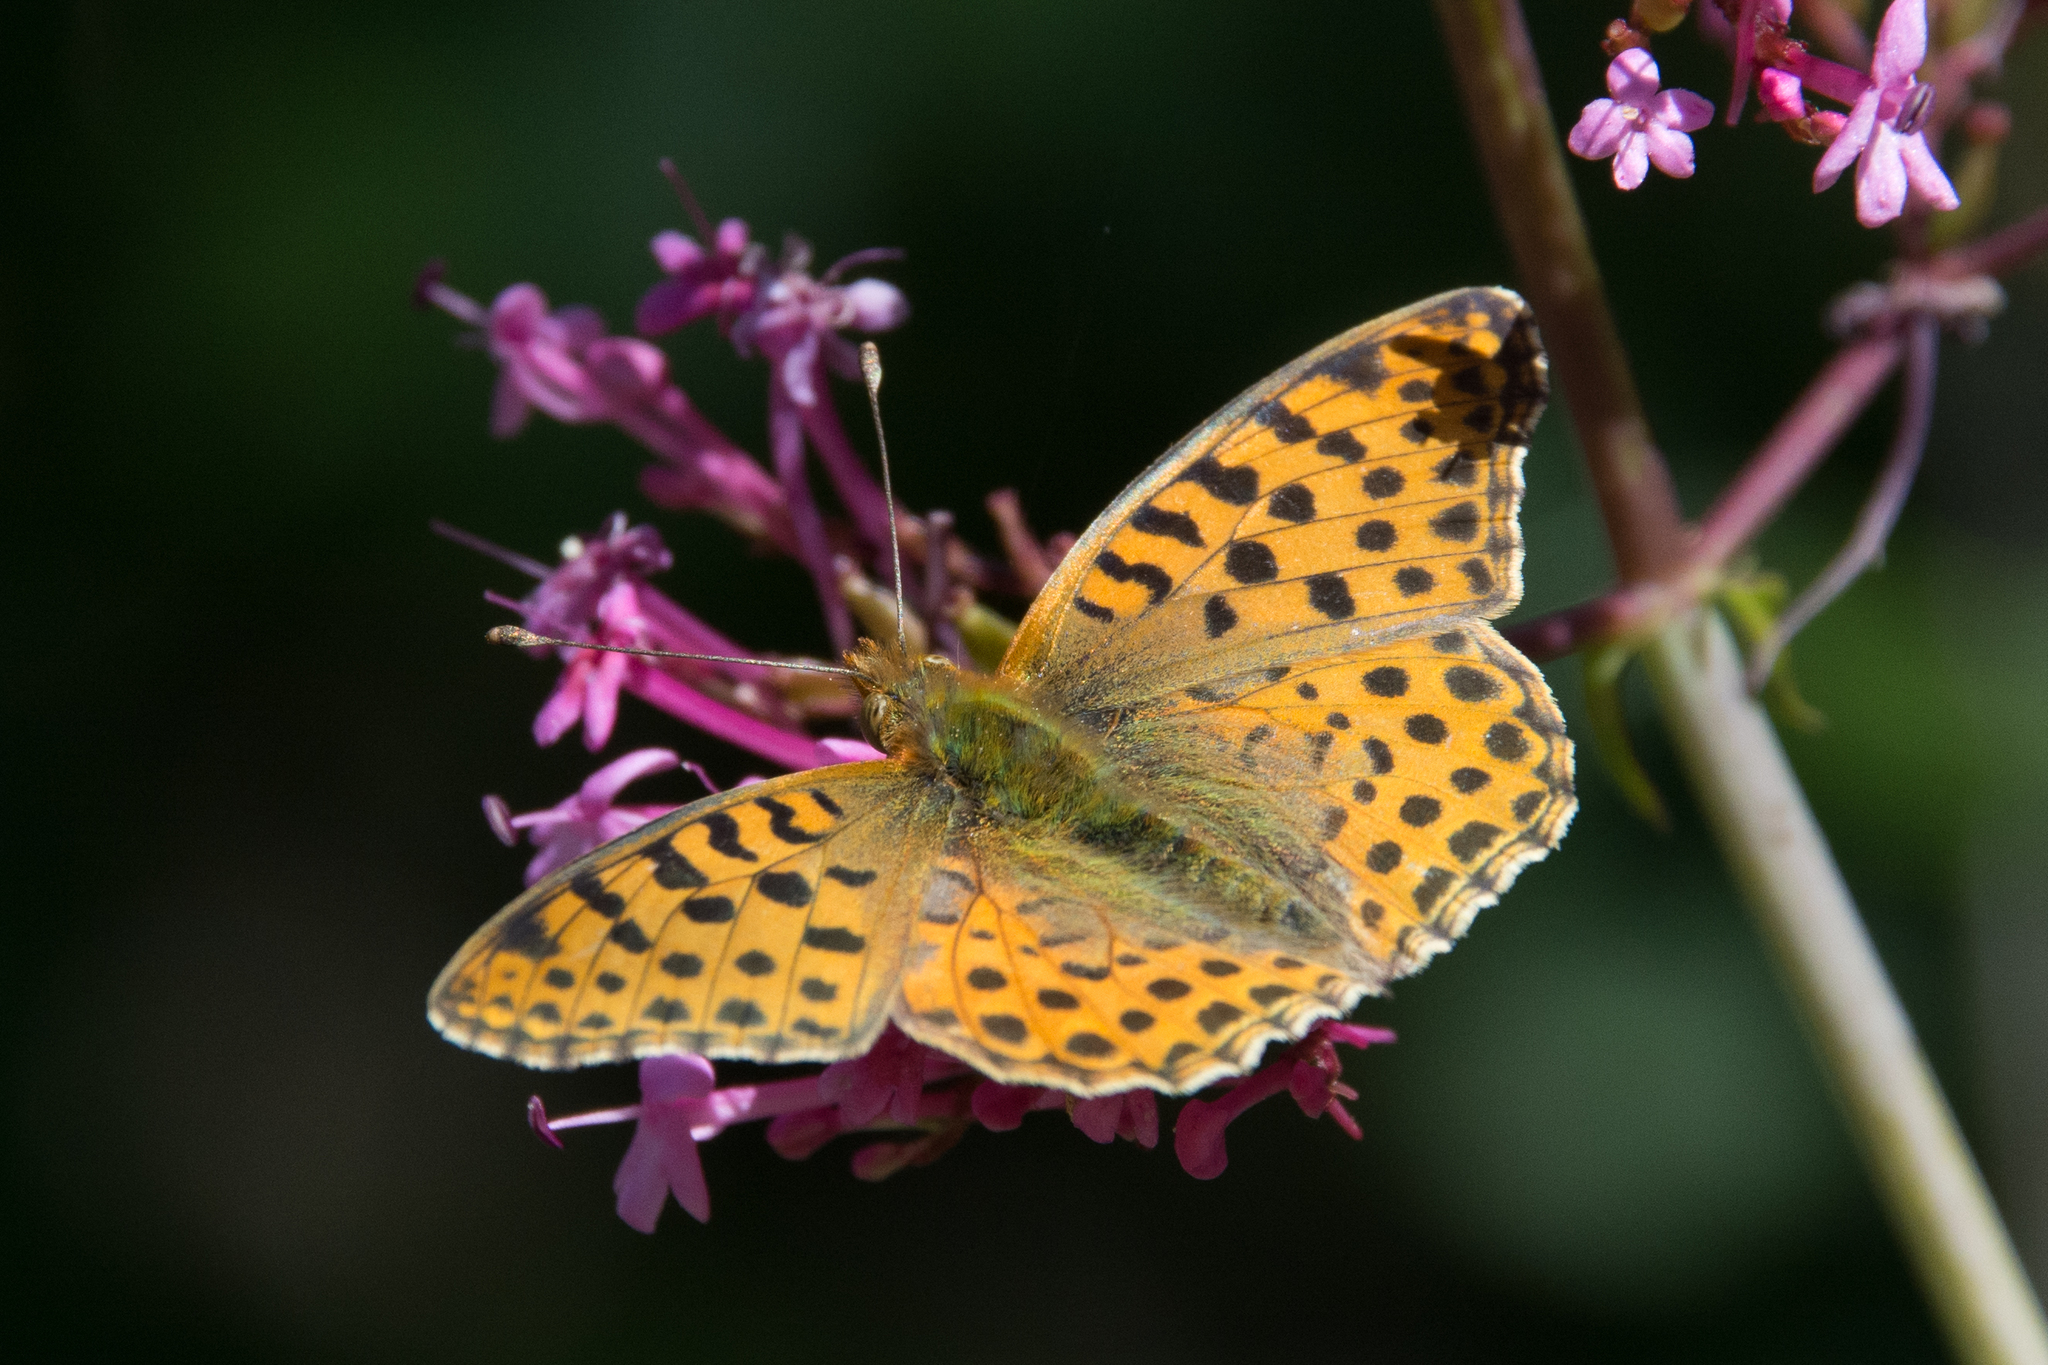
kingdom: Animalia
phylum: Arthropoda
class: Insecta
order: Lepidoptera
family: Nymphalidae
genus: Issoria
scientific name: Issoria lathonia
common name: Queen of spain fritillary
